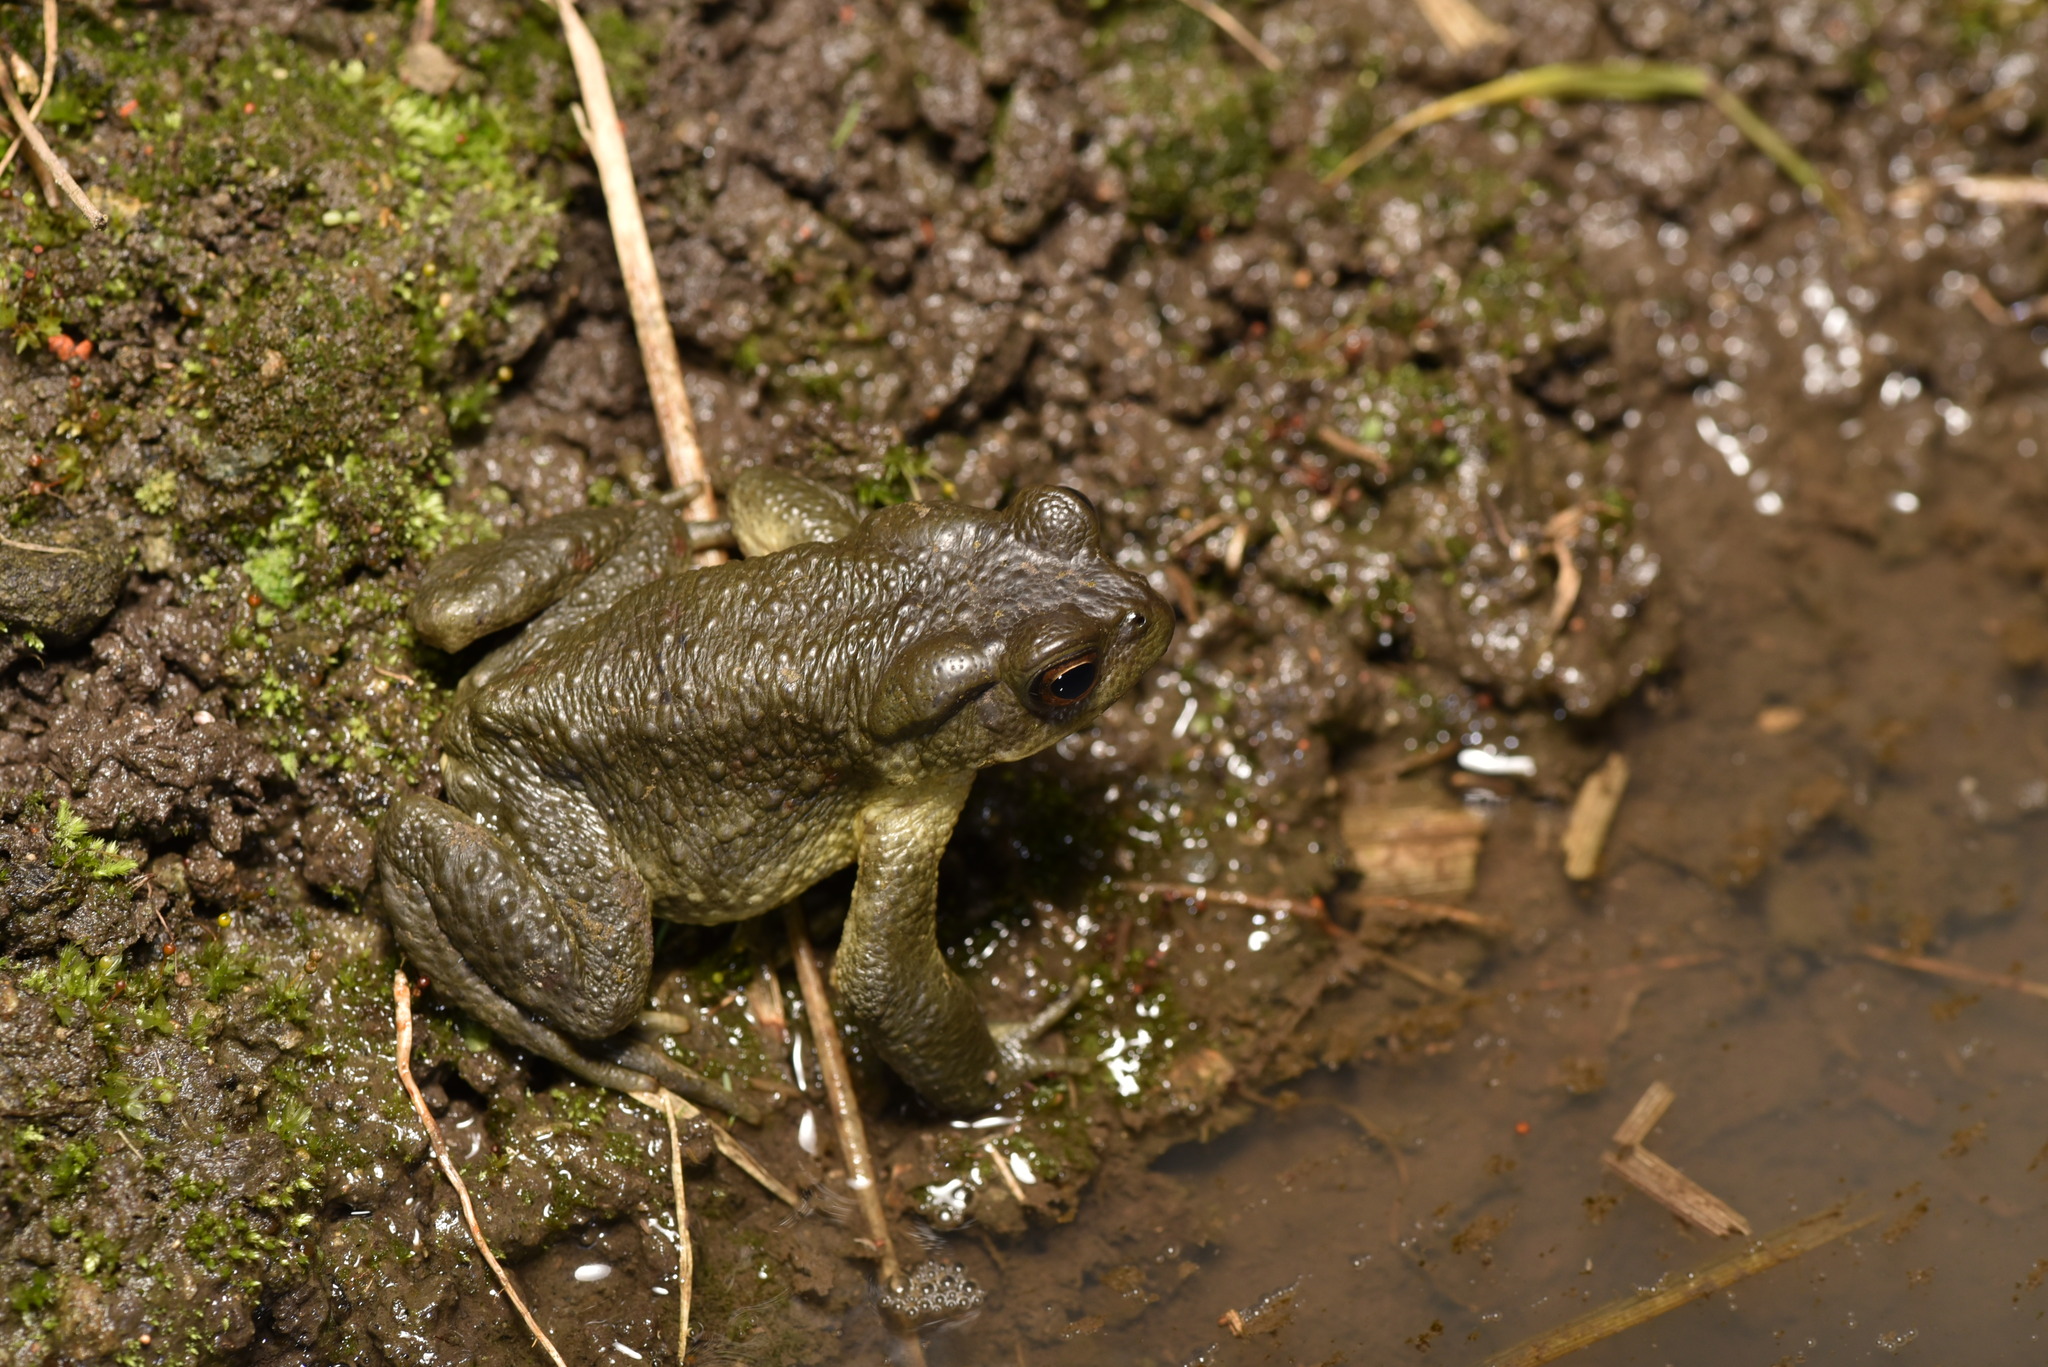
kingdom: Animalia
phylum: Chordata
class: Amphibia
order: Anura
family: Bufonidae
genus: Bufo
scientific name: Bufo bankorensis
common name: Bankor toad
